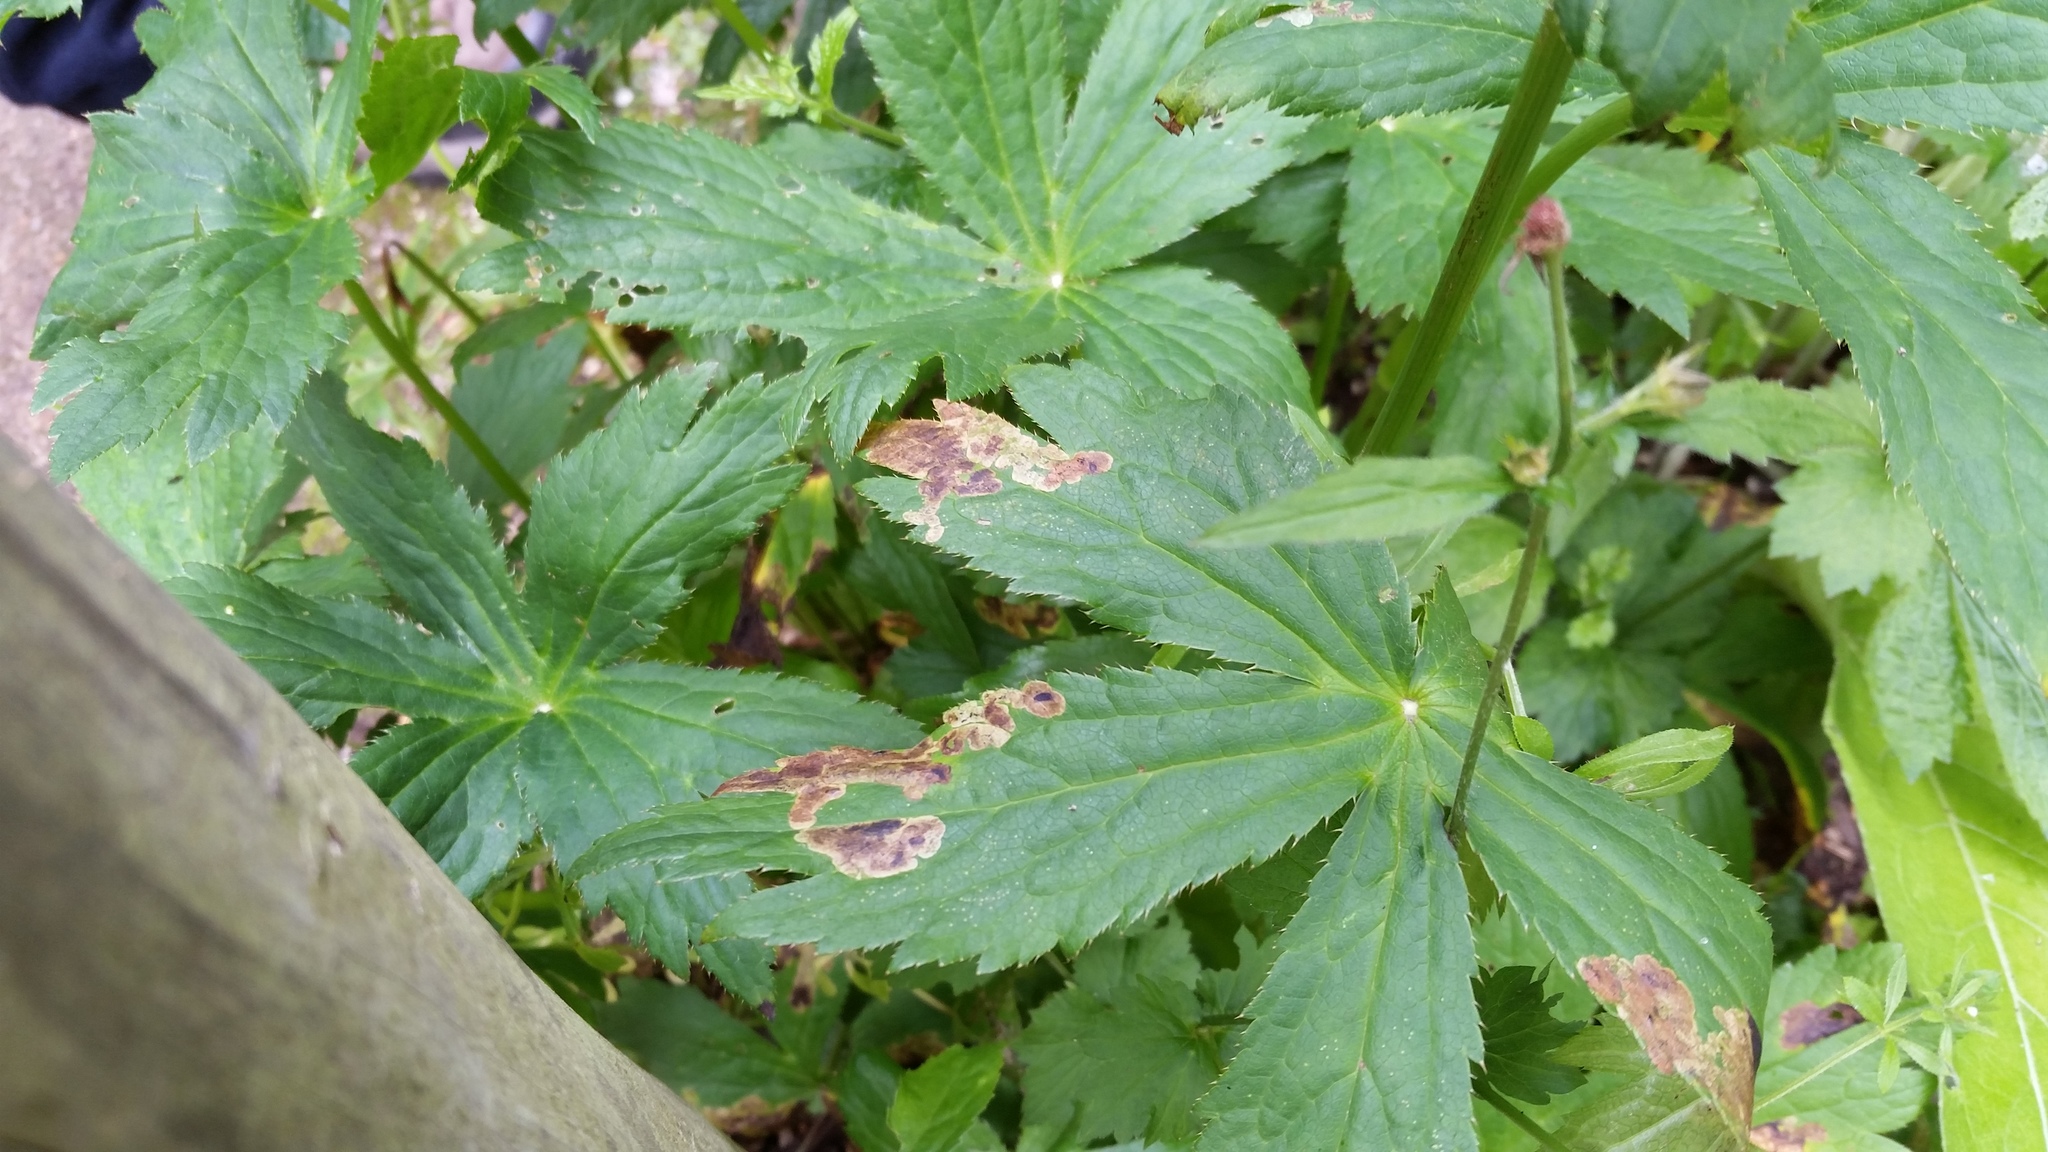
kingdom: Animalia
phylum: Arthropoda
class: Insecta
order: Diptera
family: Agromyzidae
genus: Phytomyza
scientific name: Phytomyza astrantiae
